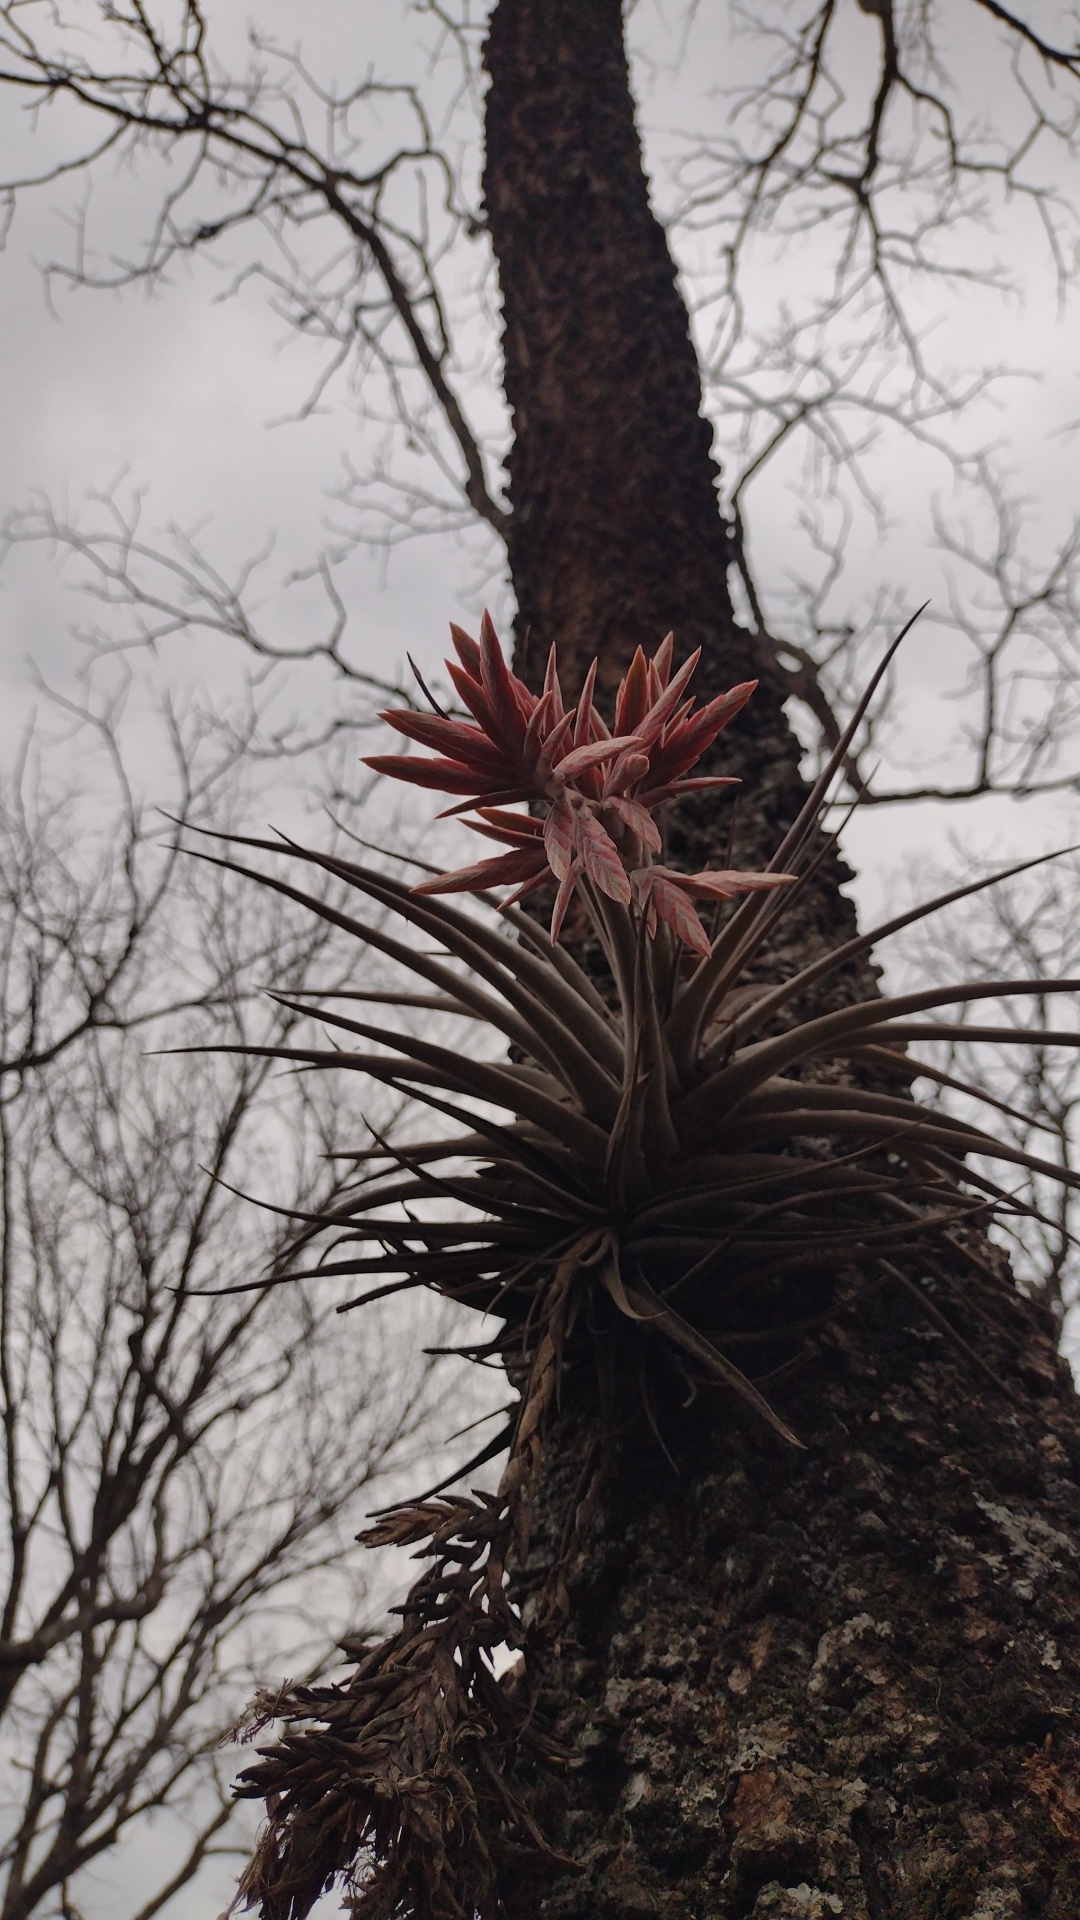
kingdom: Plantae
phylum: Tracheophyta
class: Liliopsida
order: Poales
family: Bromeliaceae
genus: Tillandsia
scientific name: Tillandsia didisticha
